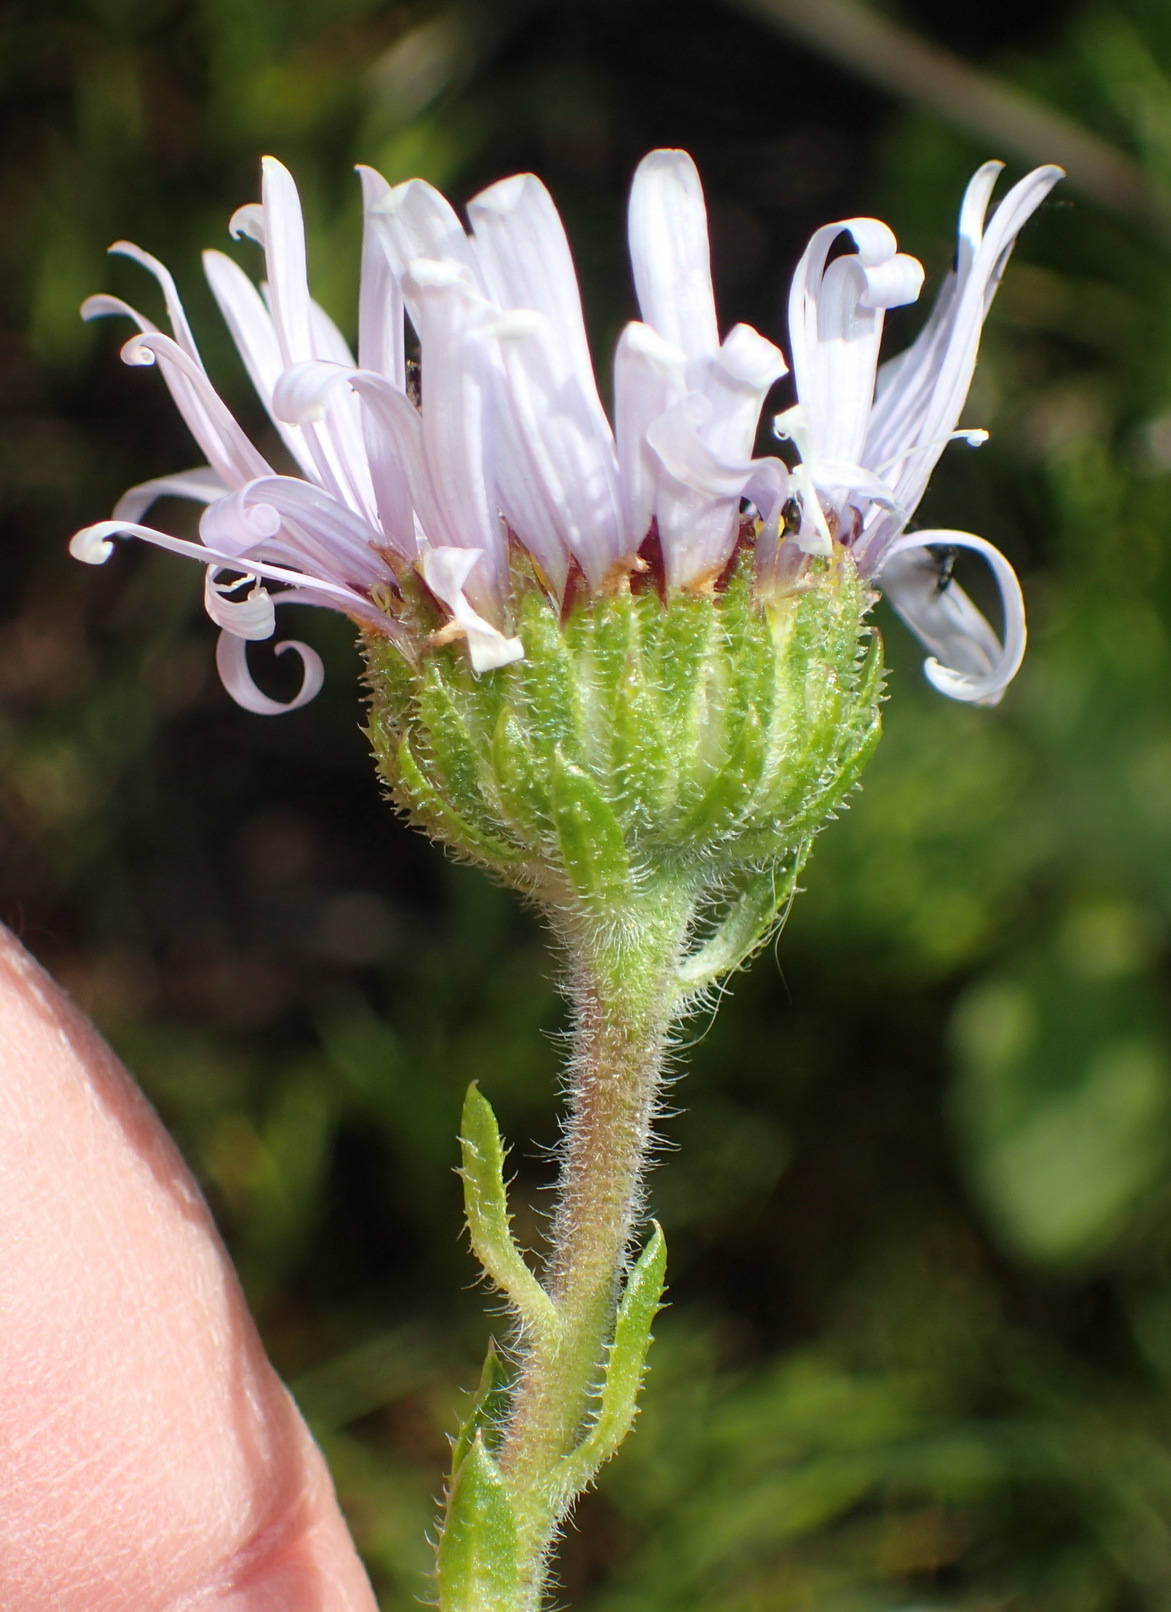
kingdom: Plantae
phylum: Tracheophyta
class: Magnoliopsida
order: Asterales
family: Asteraceae
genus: Felicia
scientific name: Felicia echinata
